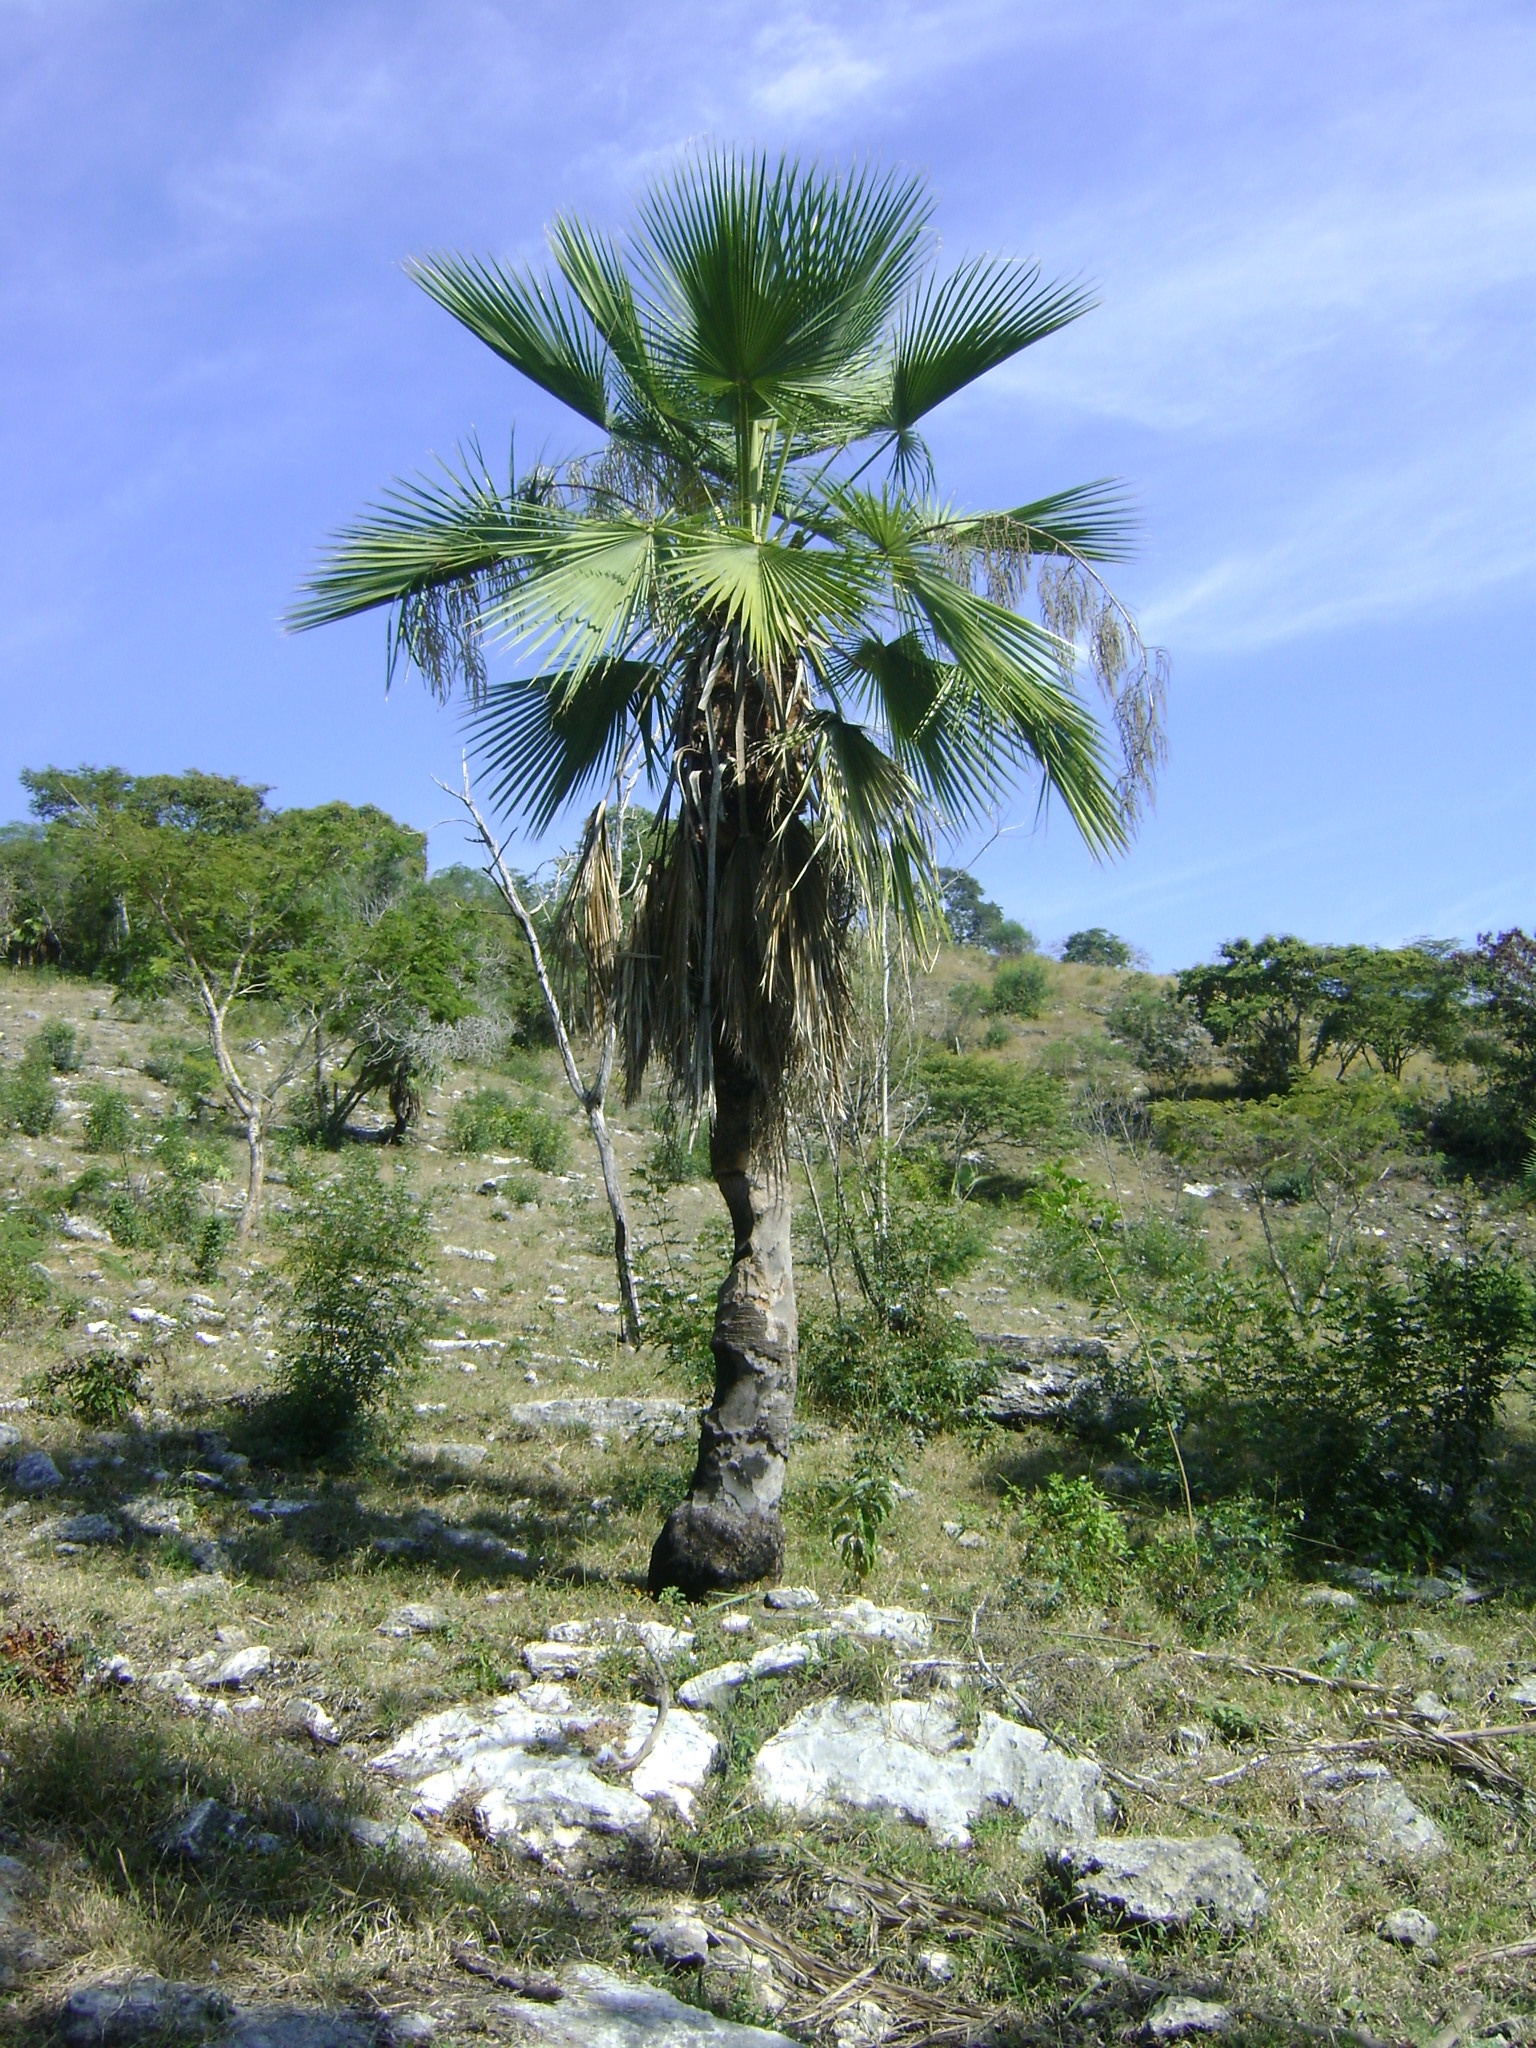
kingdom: Plantae
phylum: Tracheophyta
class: Liliopsida
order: Arecales
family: Arecaceae
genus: Brahea
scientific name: Brahea dulcis
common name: Apak palm
